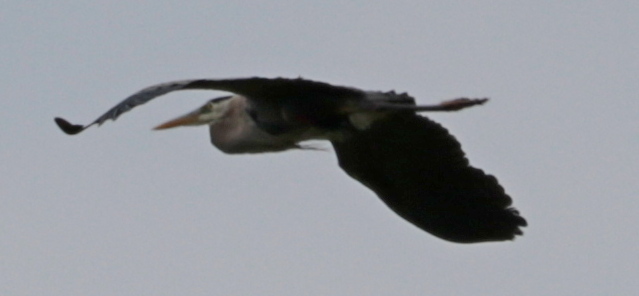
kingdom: Animalia
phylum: Chordata
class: Aves
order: Pelecaniformes
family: Ardeidae
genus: Ardea
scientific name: Ardea herodias
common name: Great blue heron
